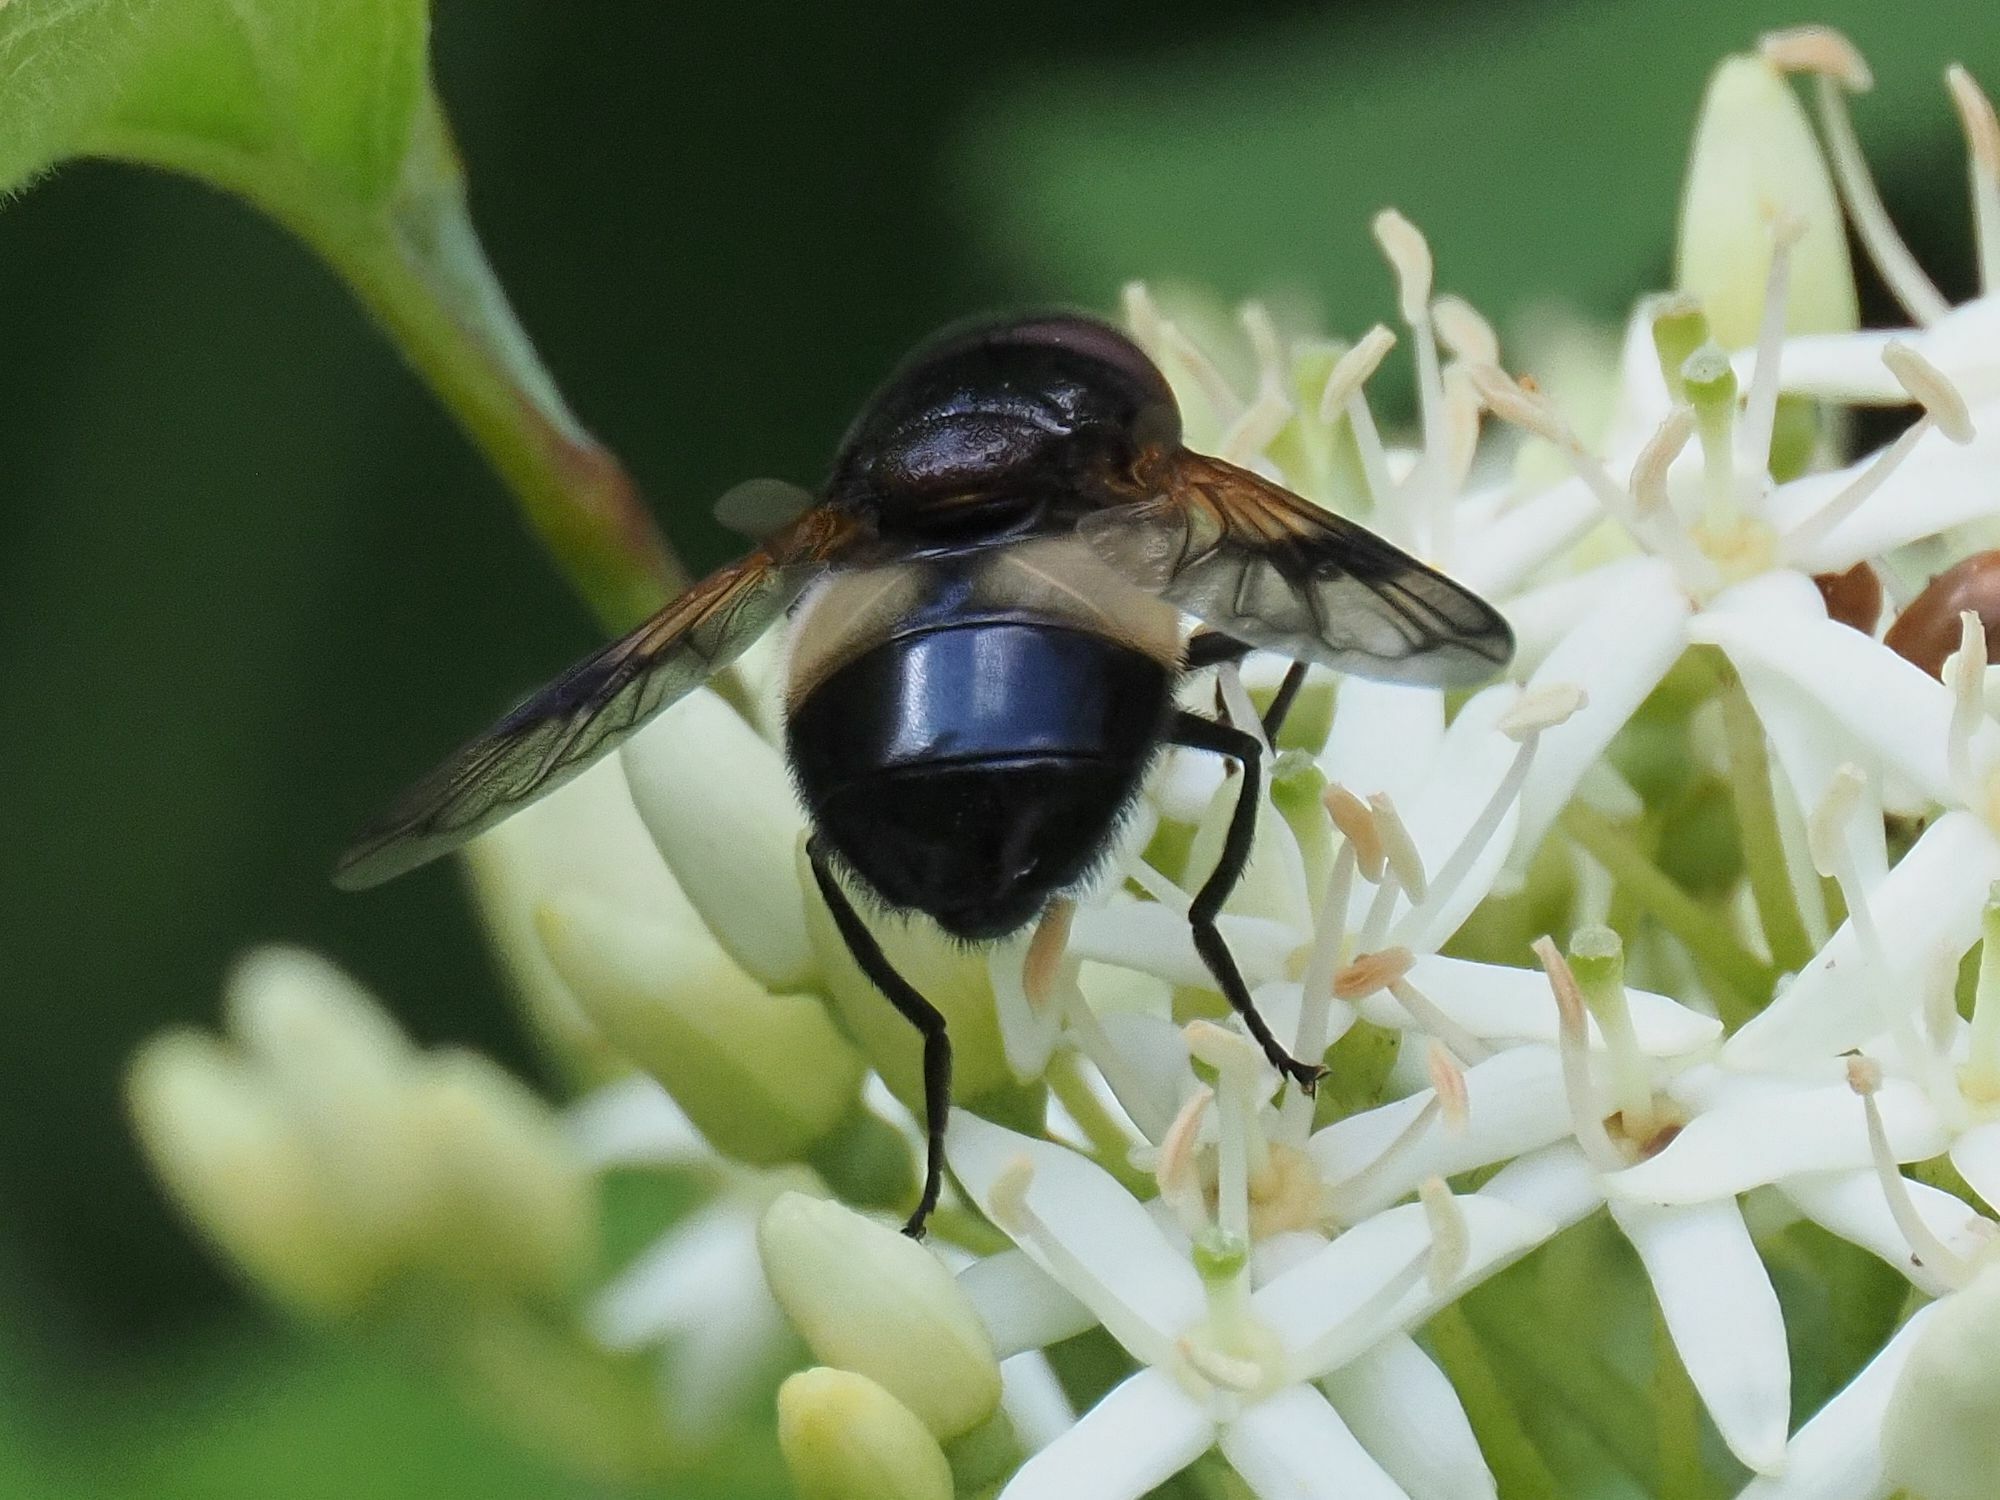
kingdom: Animalia
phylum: Arthropoda
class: Insecta
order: Diptera
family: Syrphidae
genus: Volucella
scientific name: Volucella pellucens
